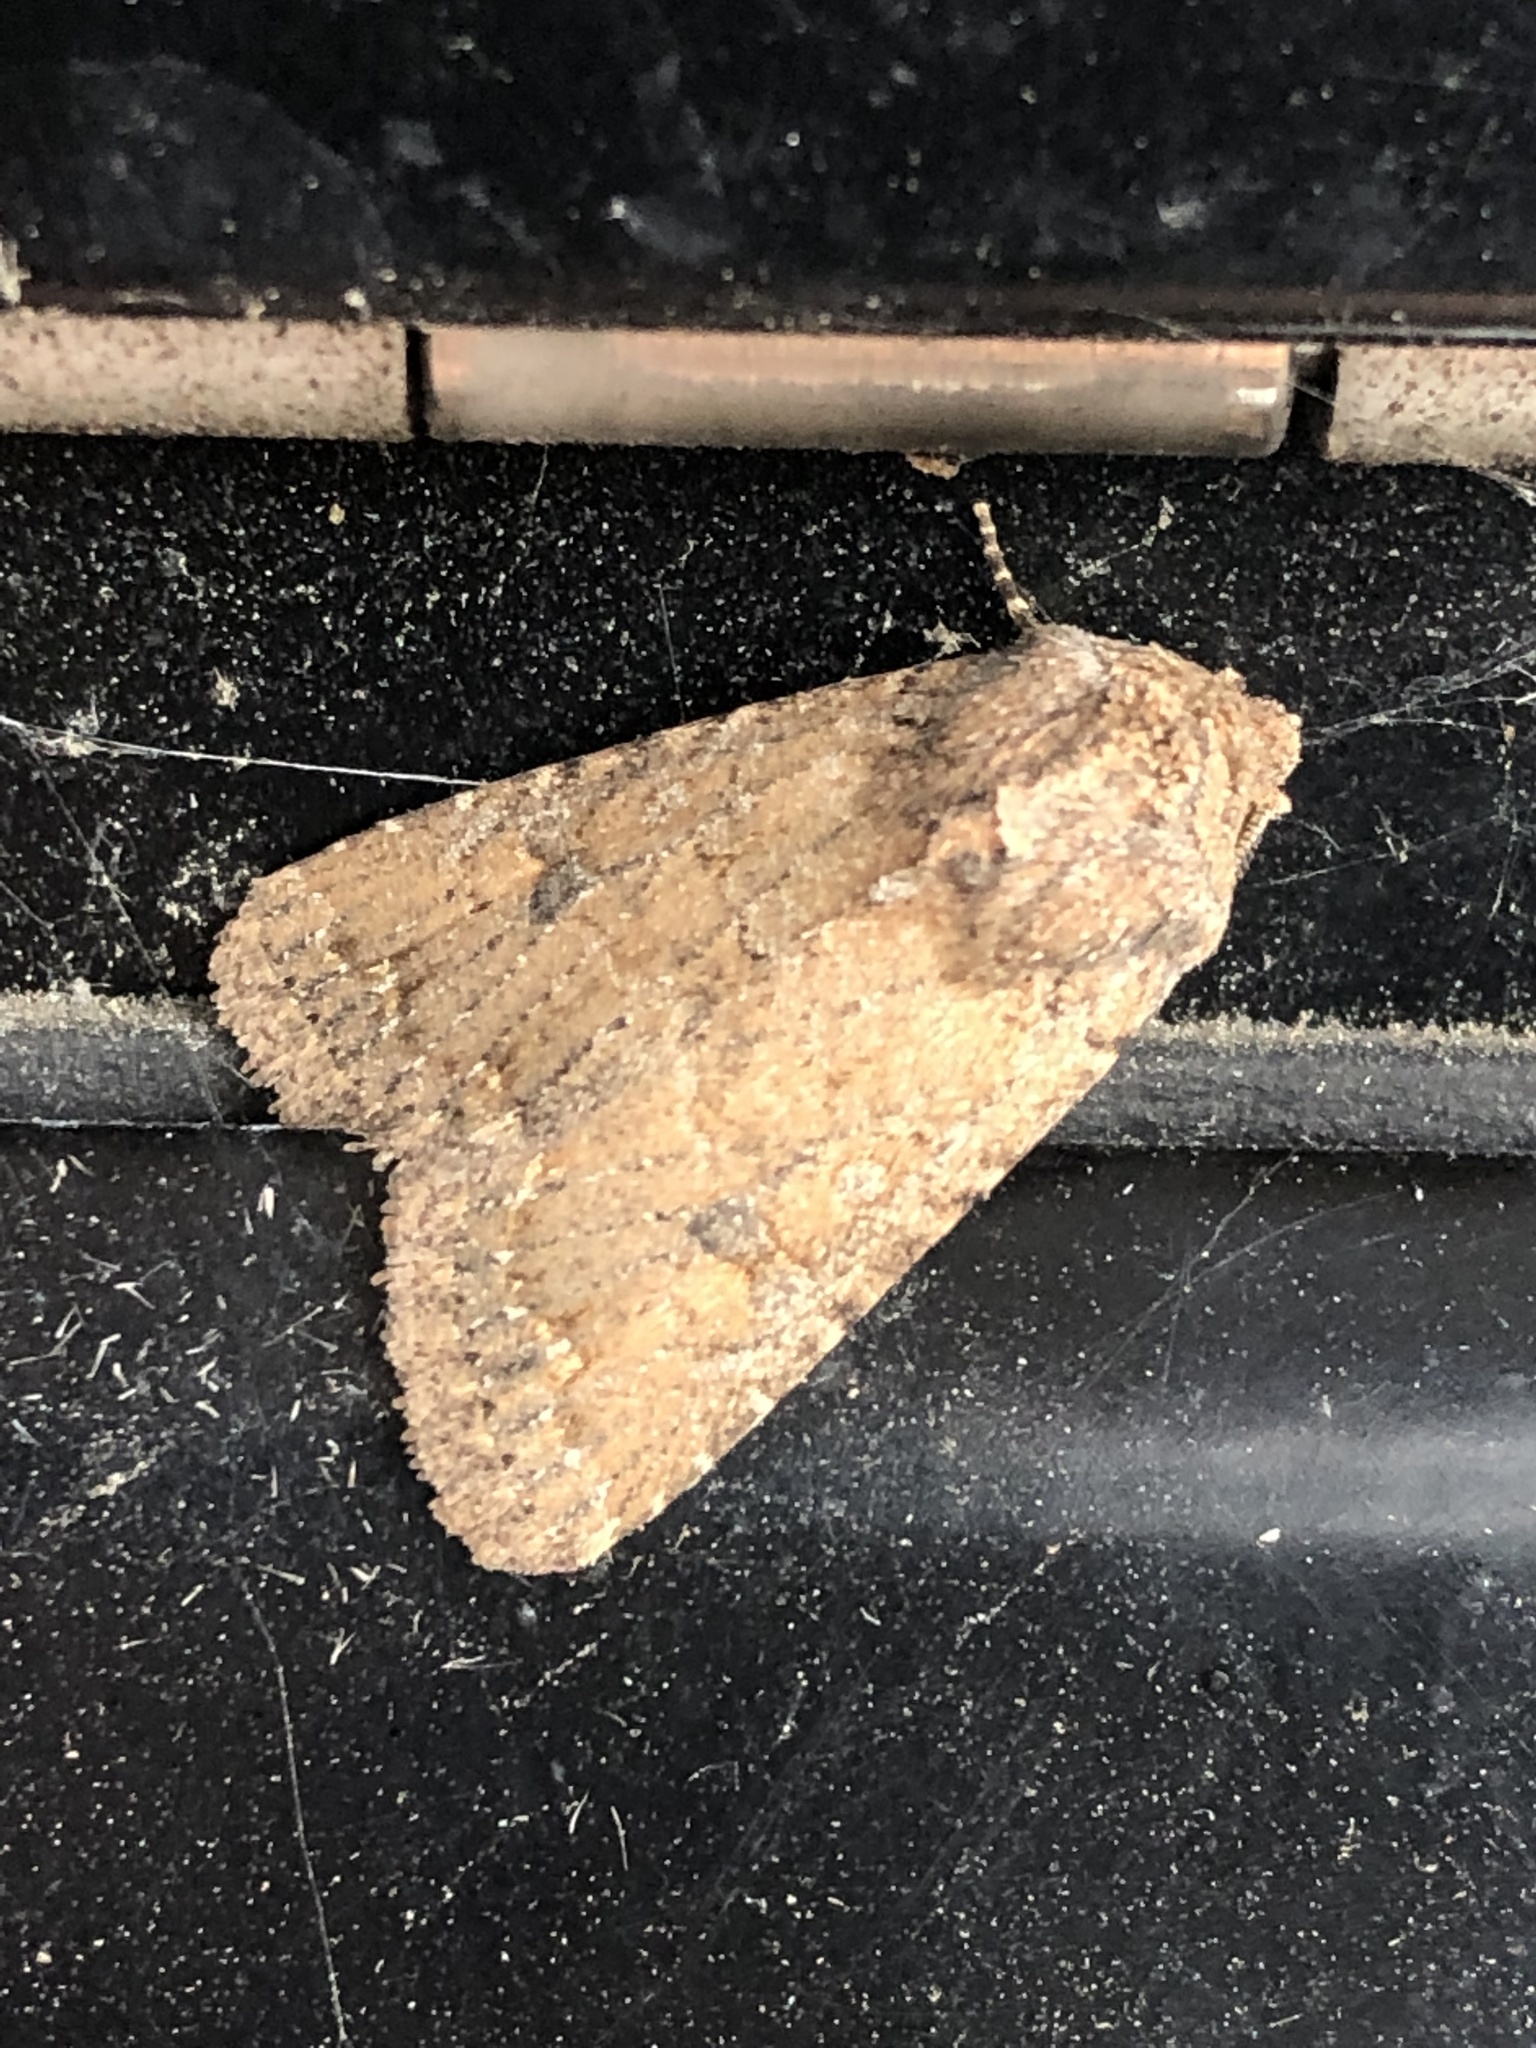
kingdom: Animalia
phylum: Arthropoda
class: Insecta
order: Lepidoptera
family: Noctuidae
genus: Trichopolia
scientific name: Trichopolia
